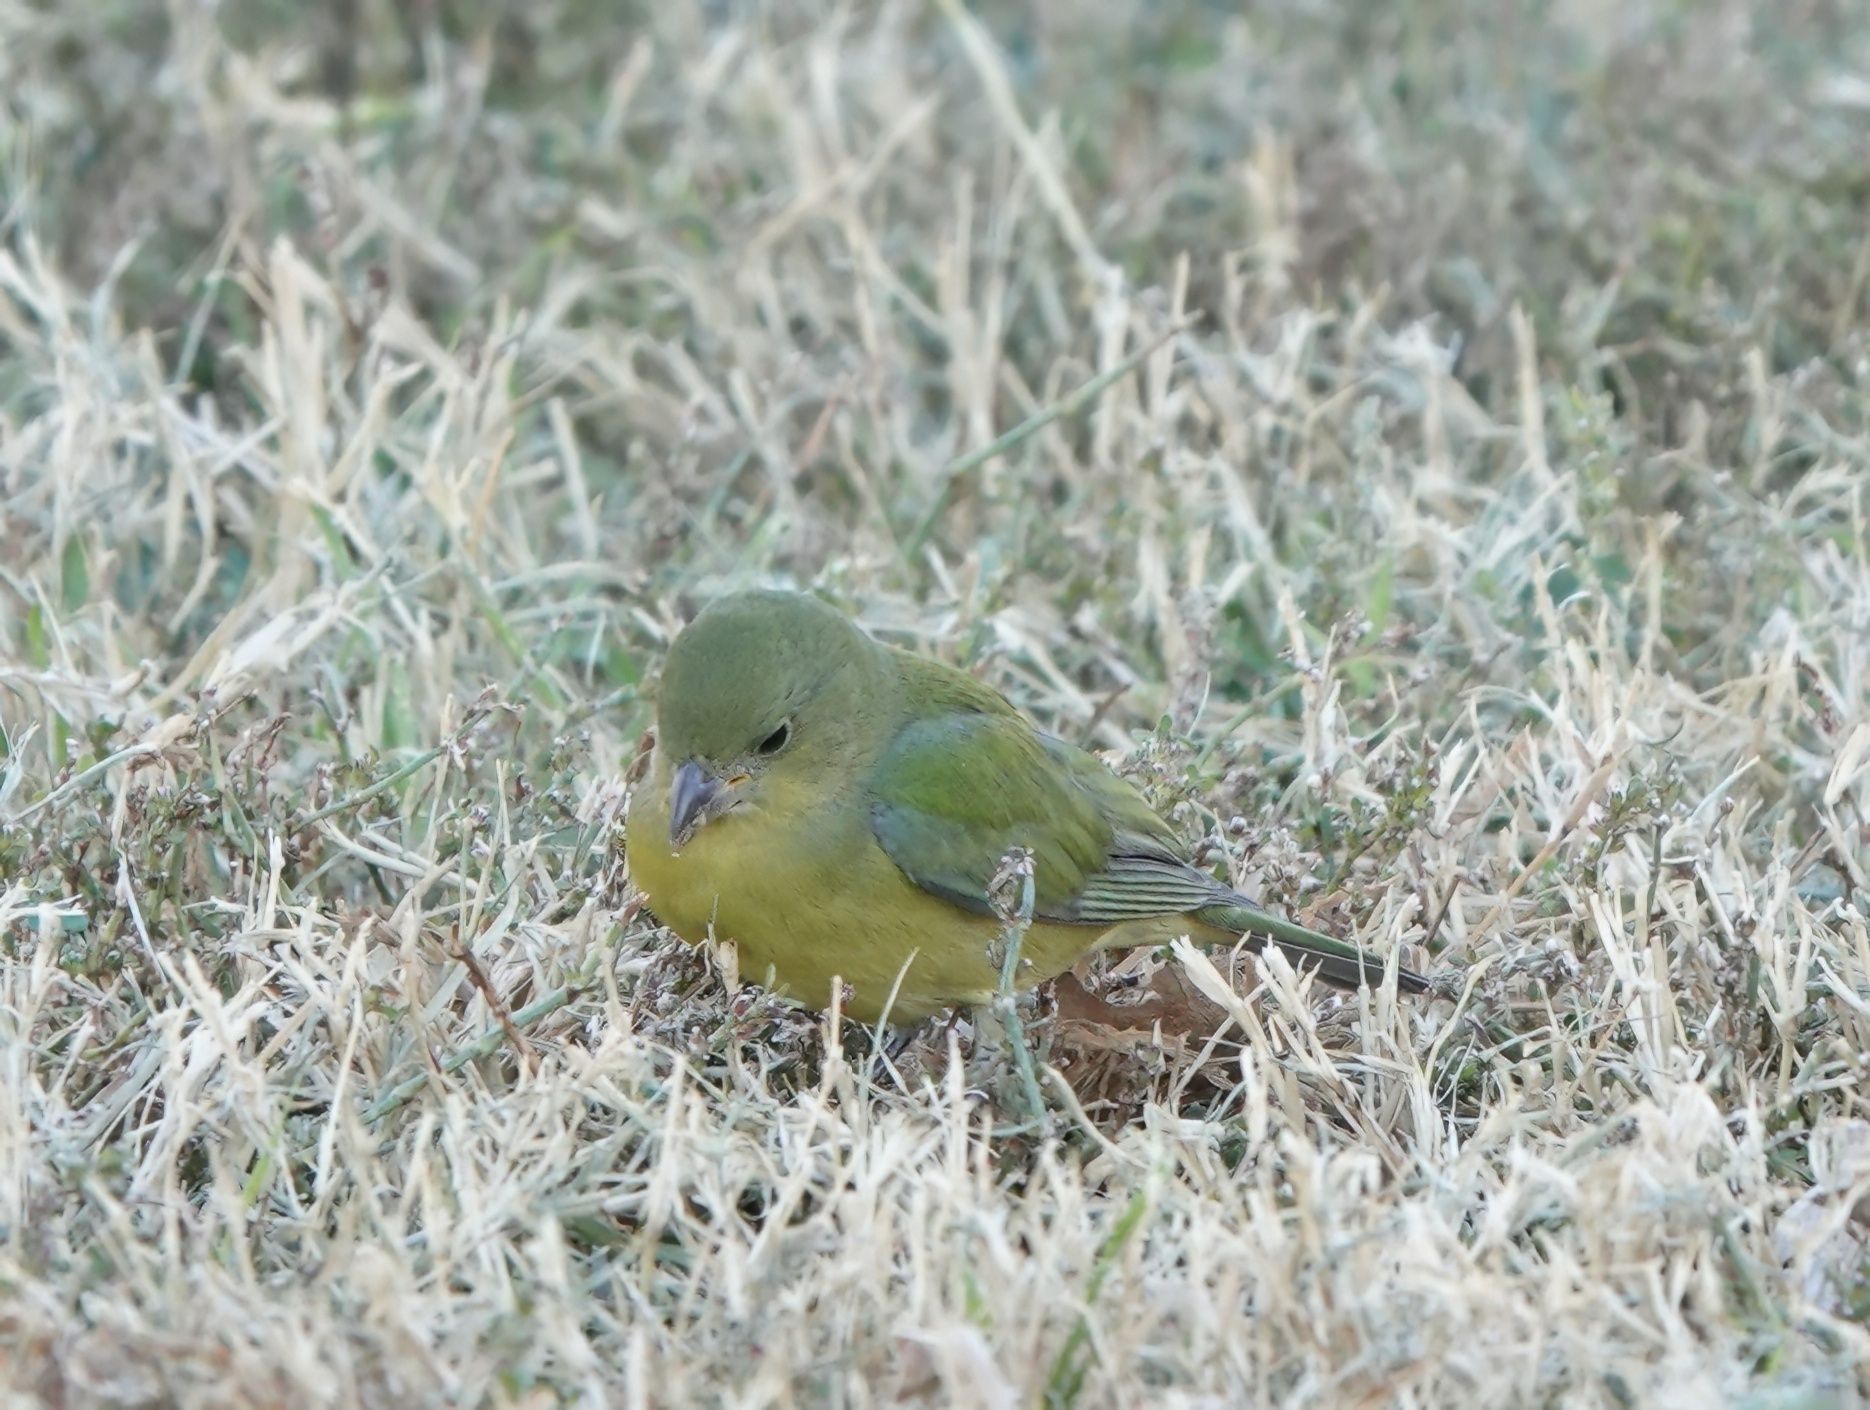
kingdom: Animalia
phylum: Chordata
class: Aves
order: Passeriformes
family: Cardinalidae
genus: Passerina
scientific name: Passerina ciris
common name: Painted bunting
